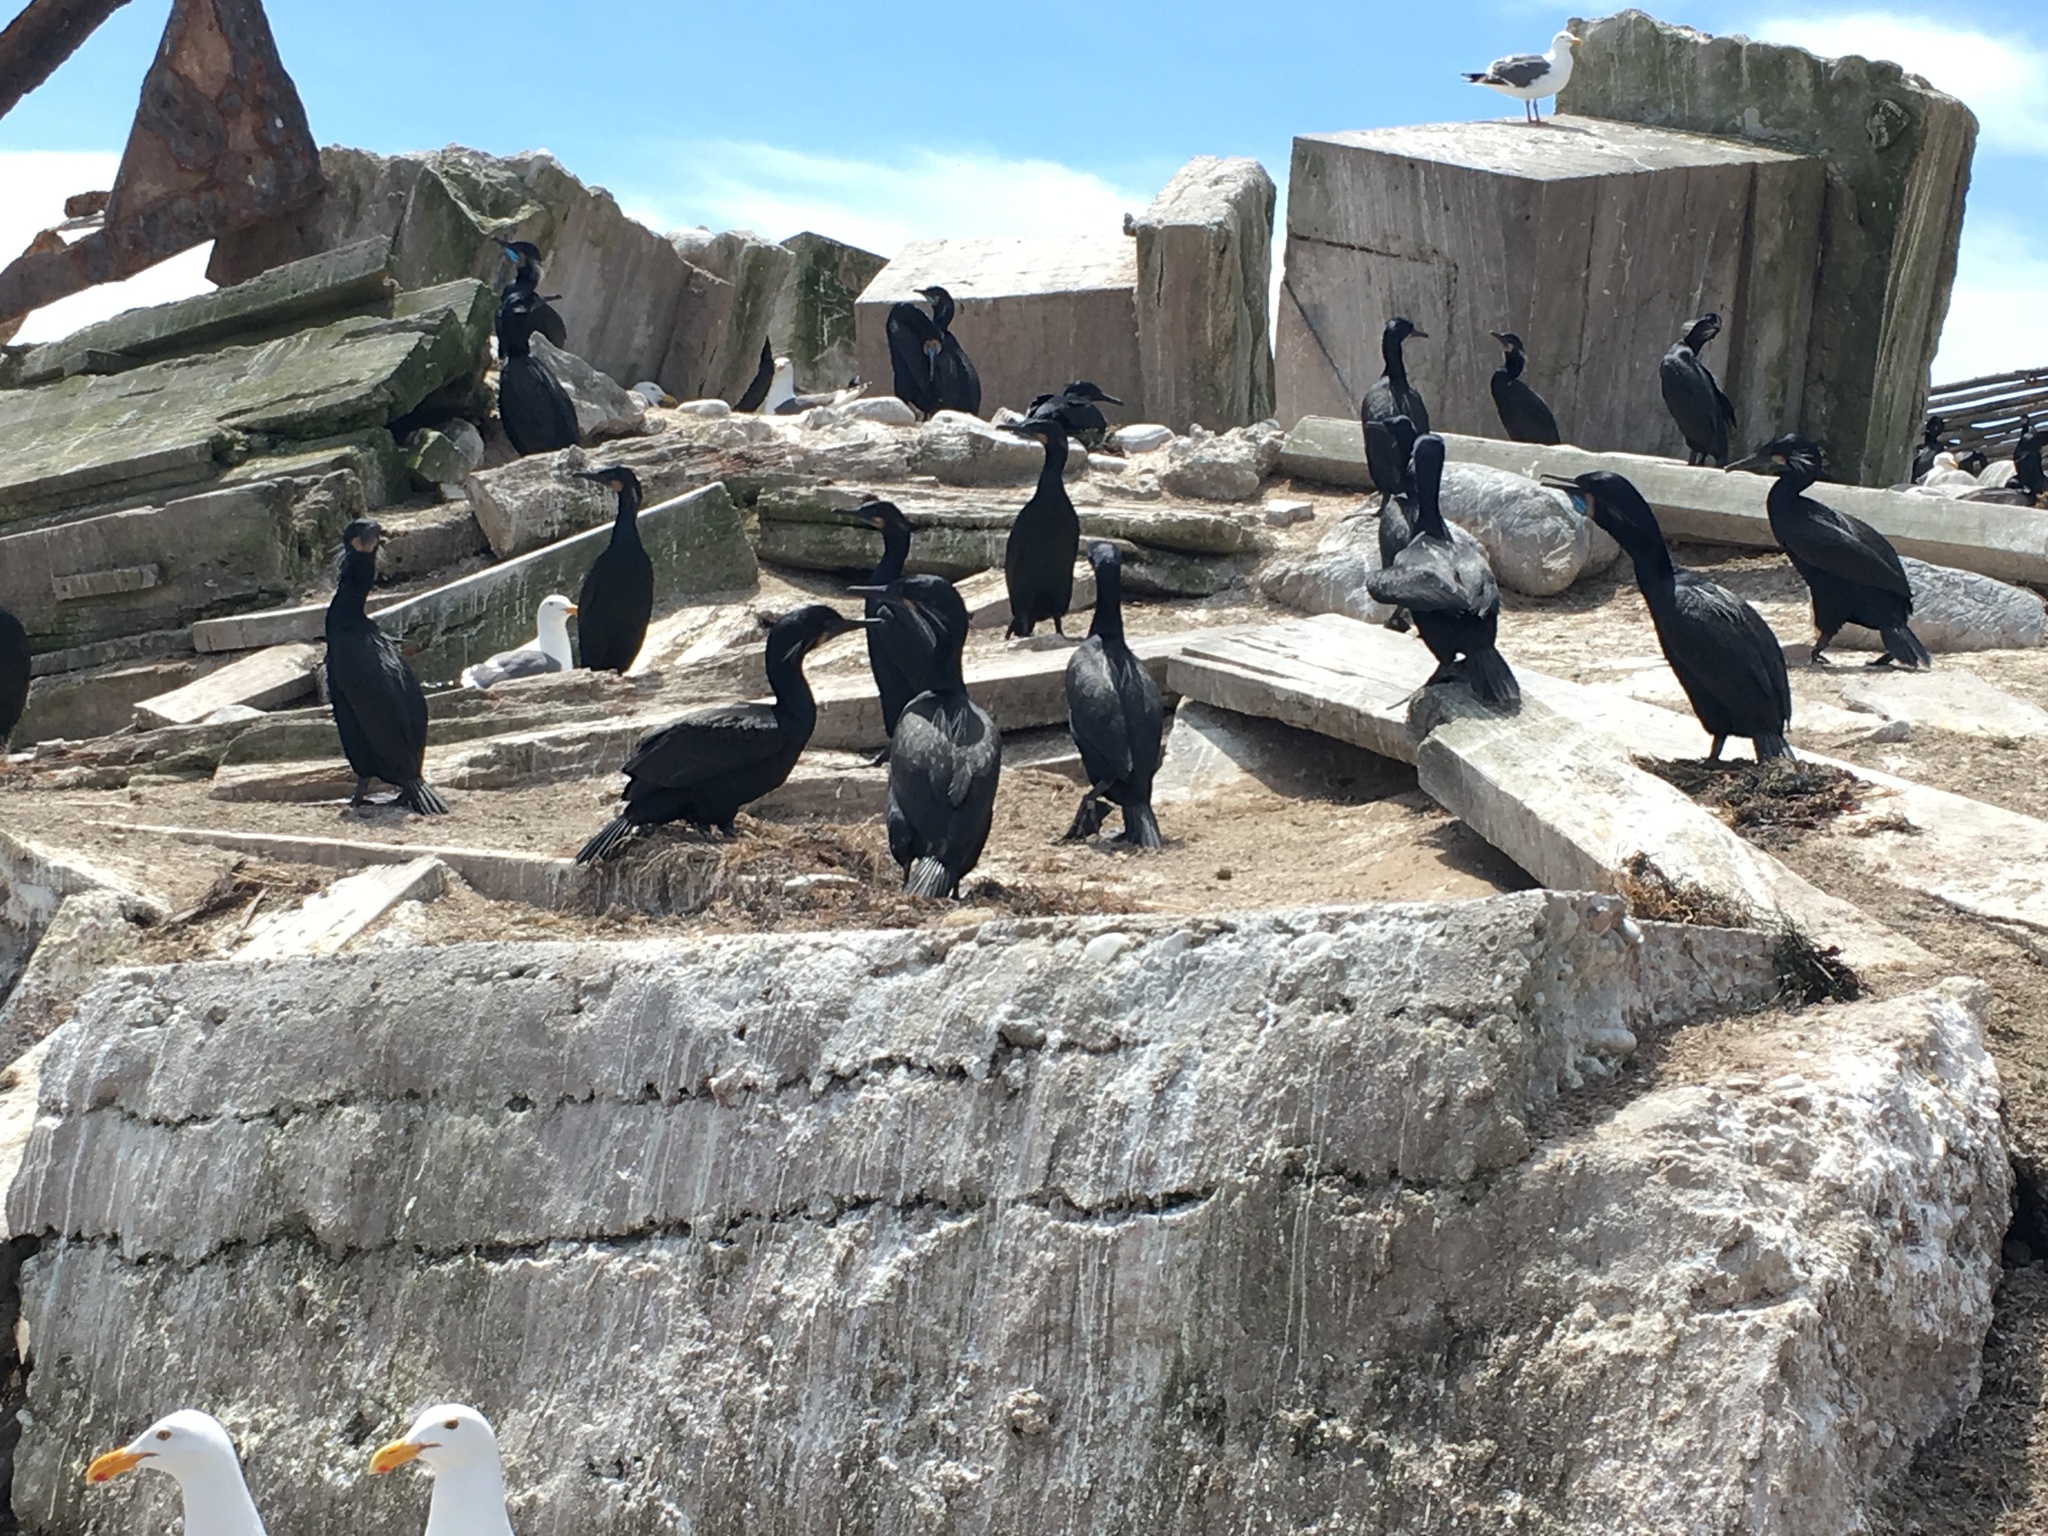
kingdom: Animalia
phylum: Chordata
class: Aves
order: Suliformes
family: Phalacrocoracidae
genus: Urile
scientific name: Urile penicillatus
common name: Brandt's cormorant
